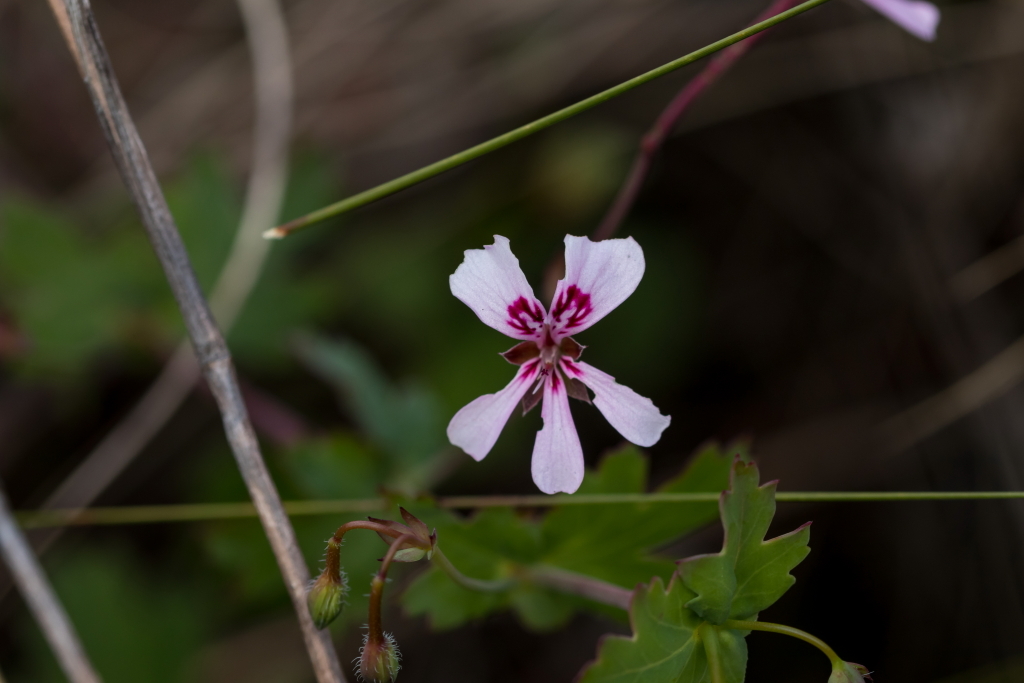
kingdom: Plantae
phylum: Tracheophyta
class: Magnoliopsida
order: Geraniales
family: Geraniaceae
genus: Pelargonium
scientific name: Pelargonium patulum
